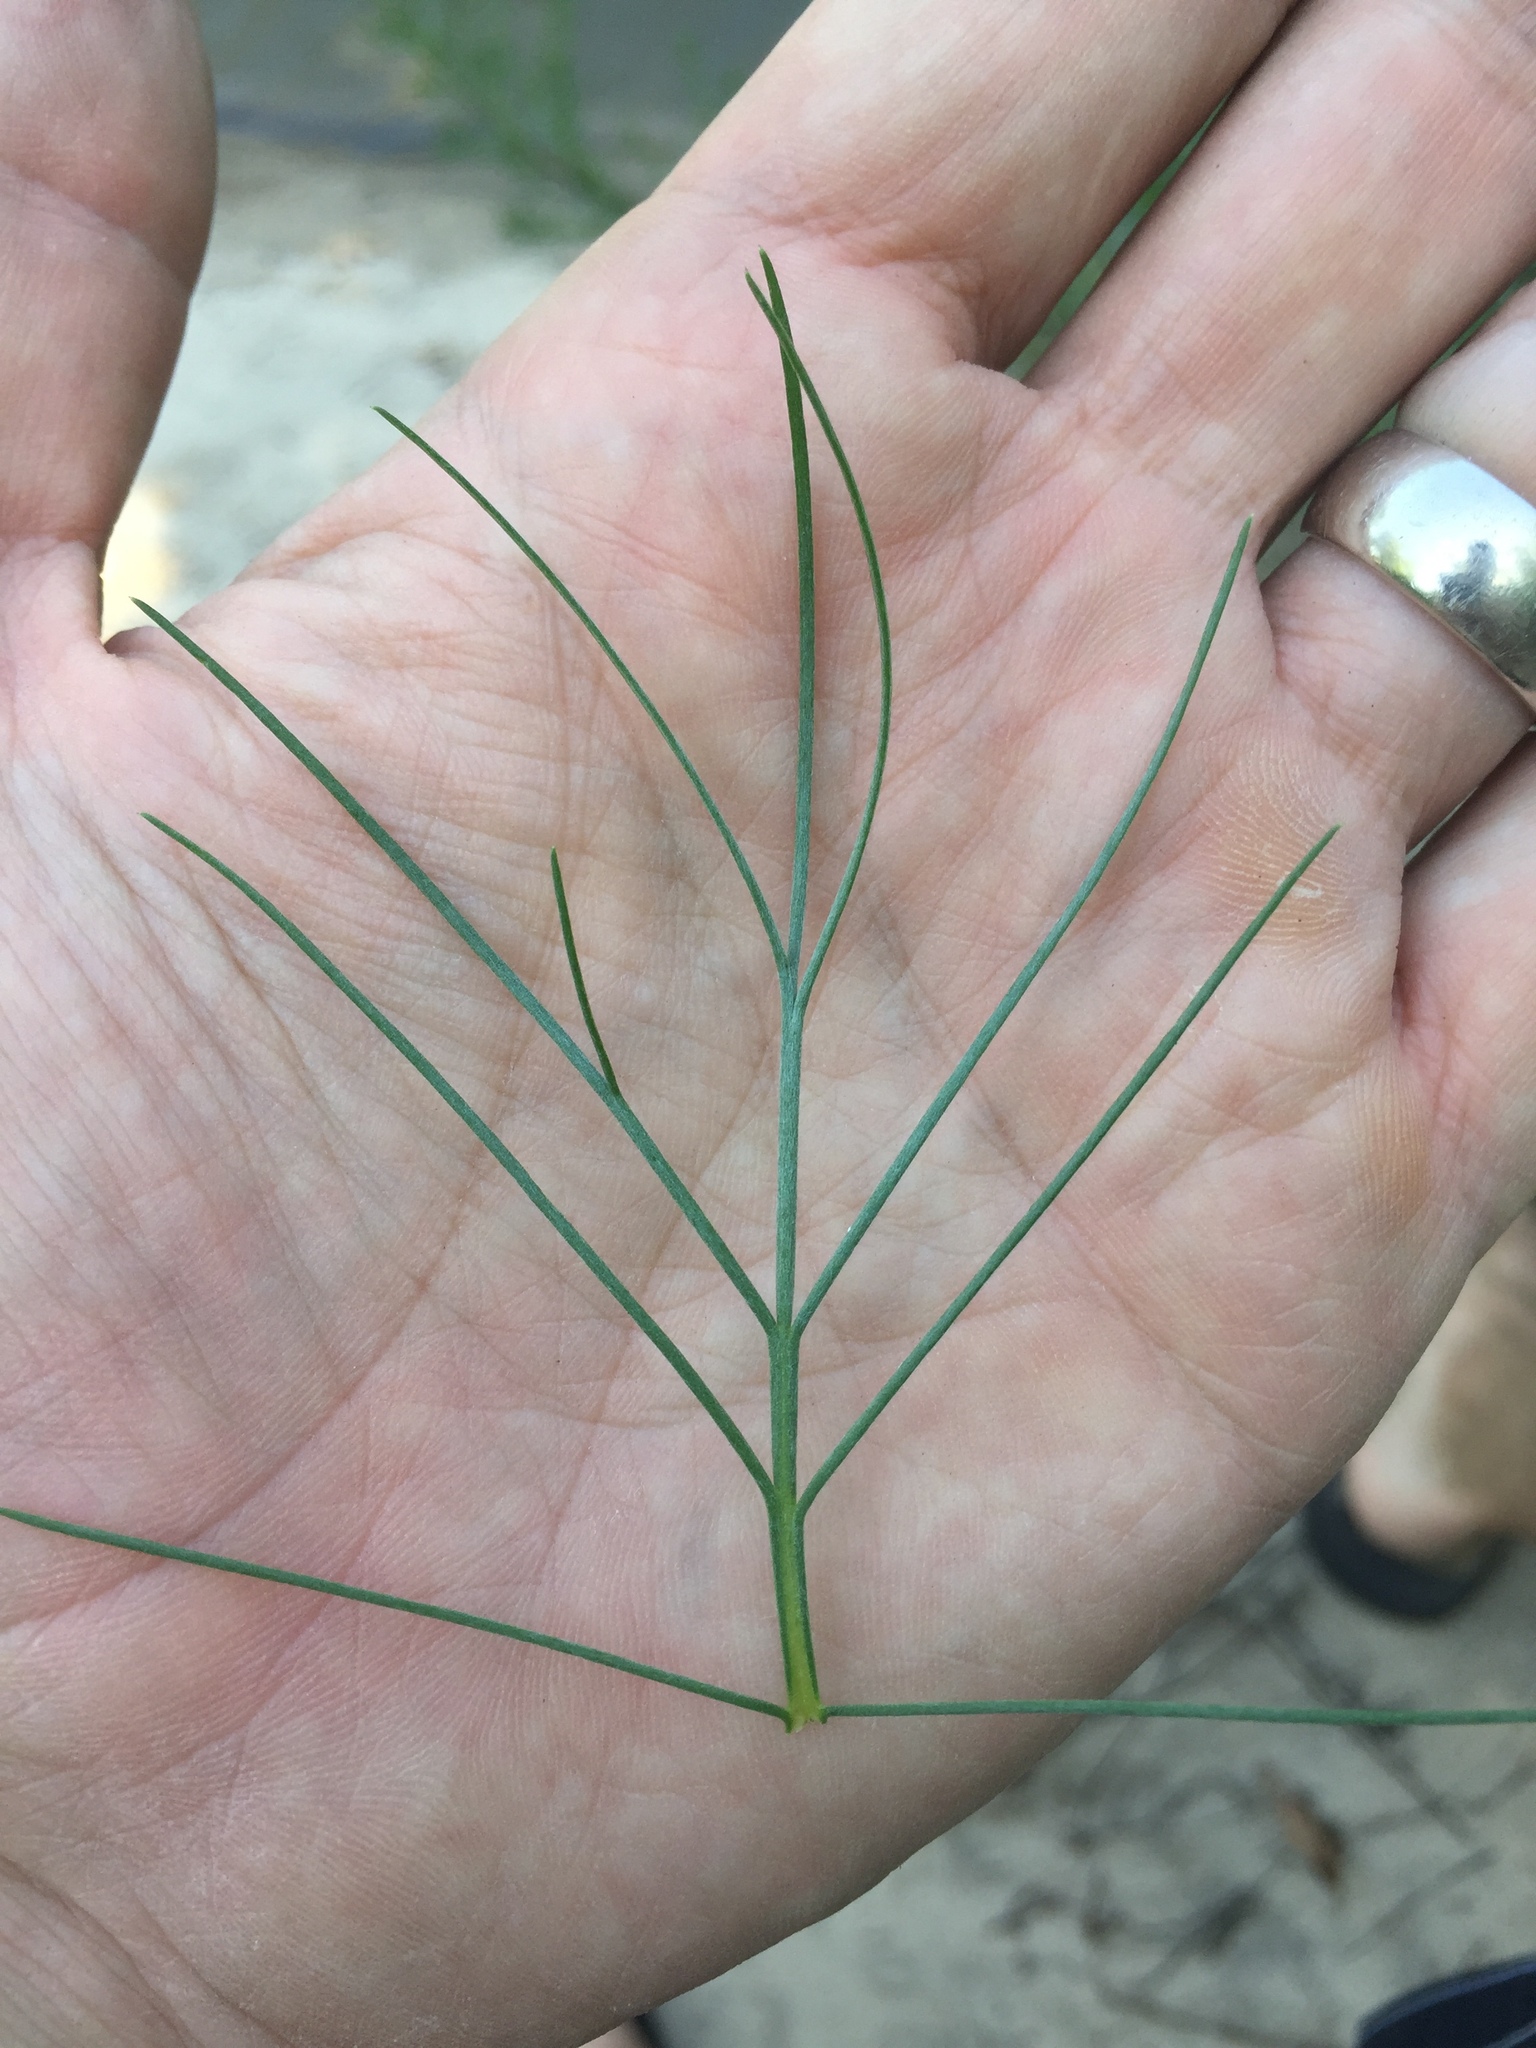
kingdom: Plantae
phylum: Tracheophyta
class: Magnoliopsida
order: Asterales
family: Asteraceae
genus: Artemisia
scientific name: Artemisia campestris
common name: Field wormwood
